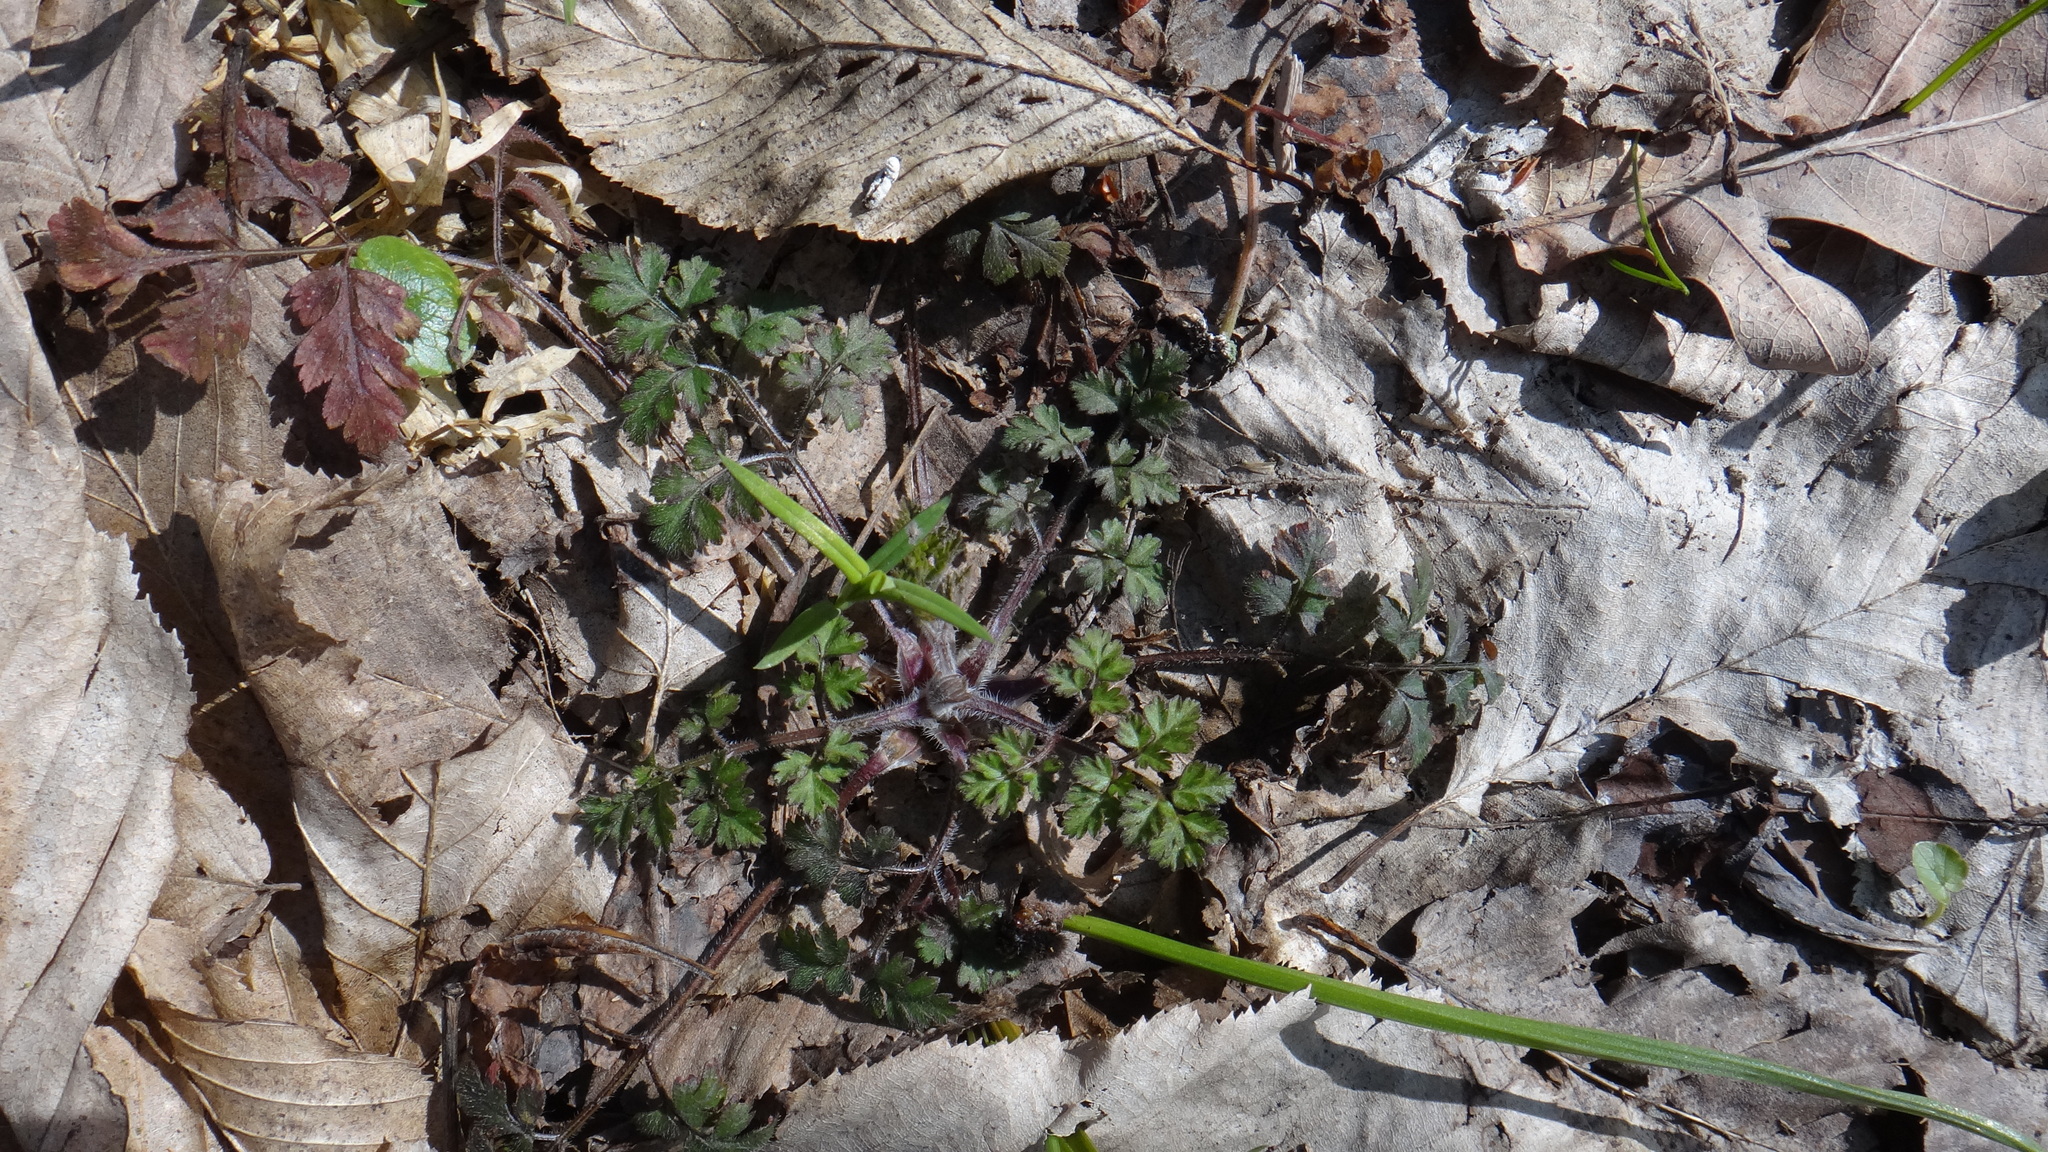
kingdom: Plantae
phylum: Tracheophyta
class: Magnoliopsida
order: Apiales
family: Apiaceae
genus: Chaerophyllum
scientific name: Chaerophyllum temulum
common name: Rough chervil
